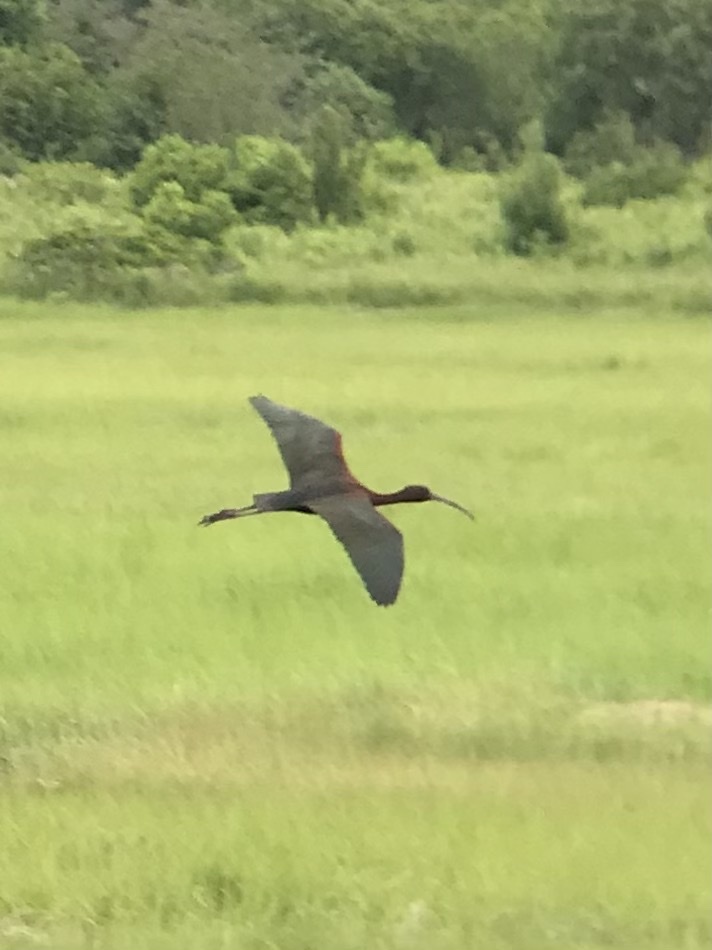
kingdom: Animalia
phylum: Chordata
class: Aves
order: Pelecaniformes
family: Threskiornithidae
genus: Plegadis
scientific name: Plegadis falcinellus
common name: Glossy ibis
